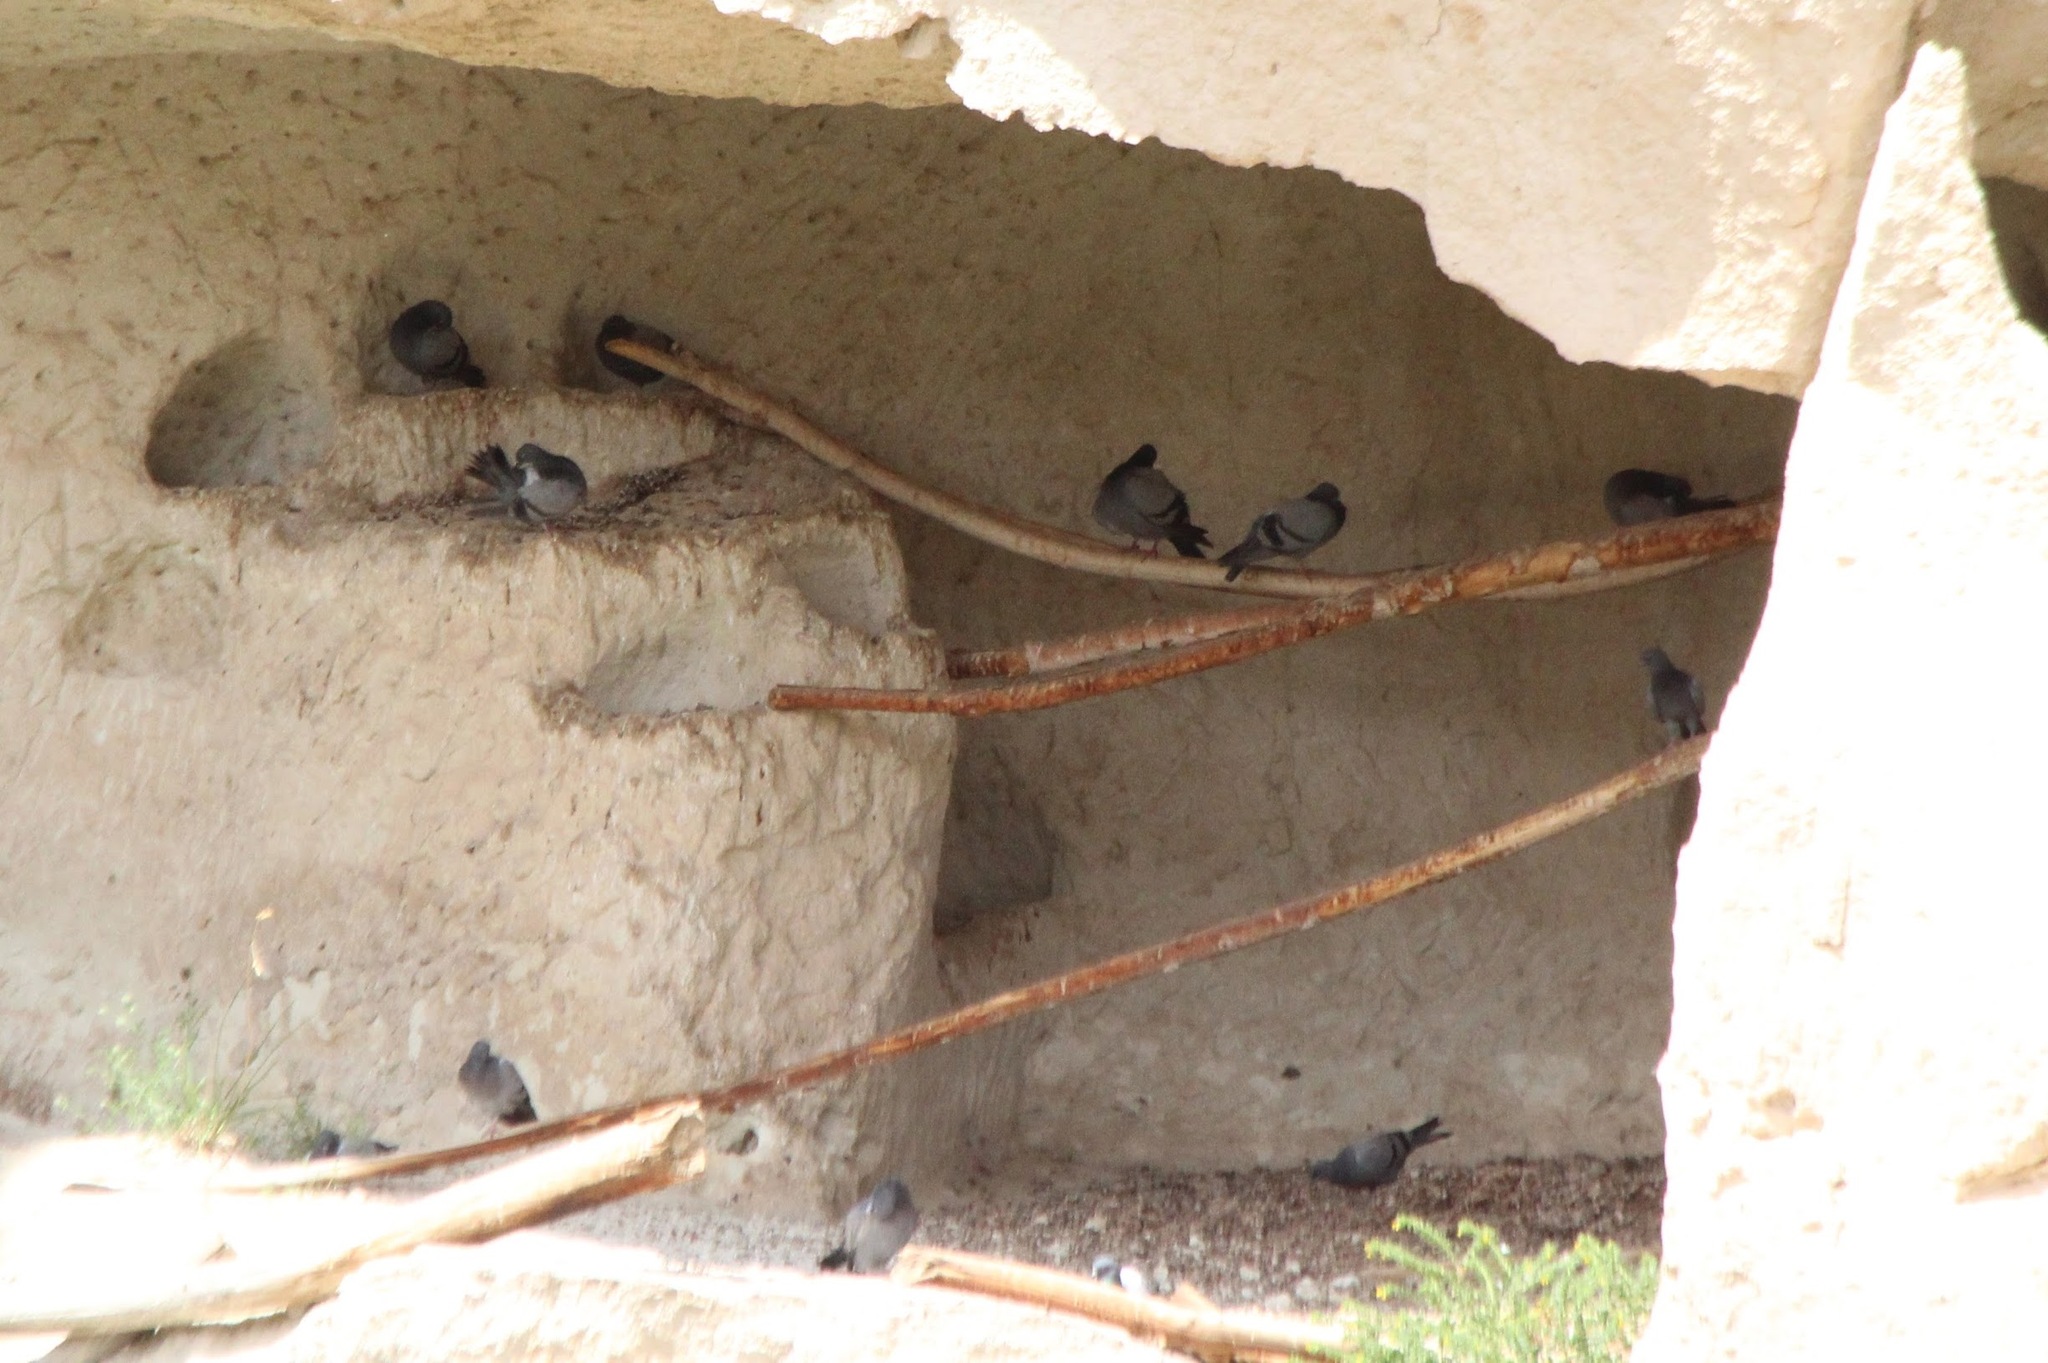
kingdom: Animalia
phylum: Chordata
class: Aves
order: Columbiformes
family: Columbidae
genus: Columba
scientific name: Columba livia
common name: Rock pigeon
